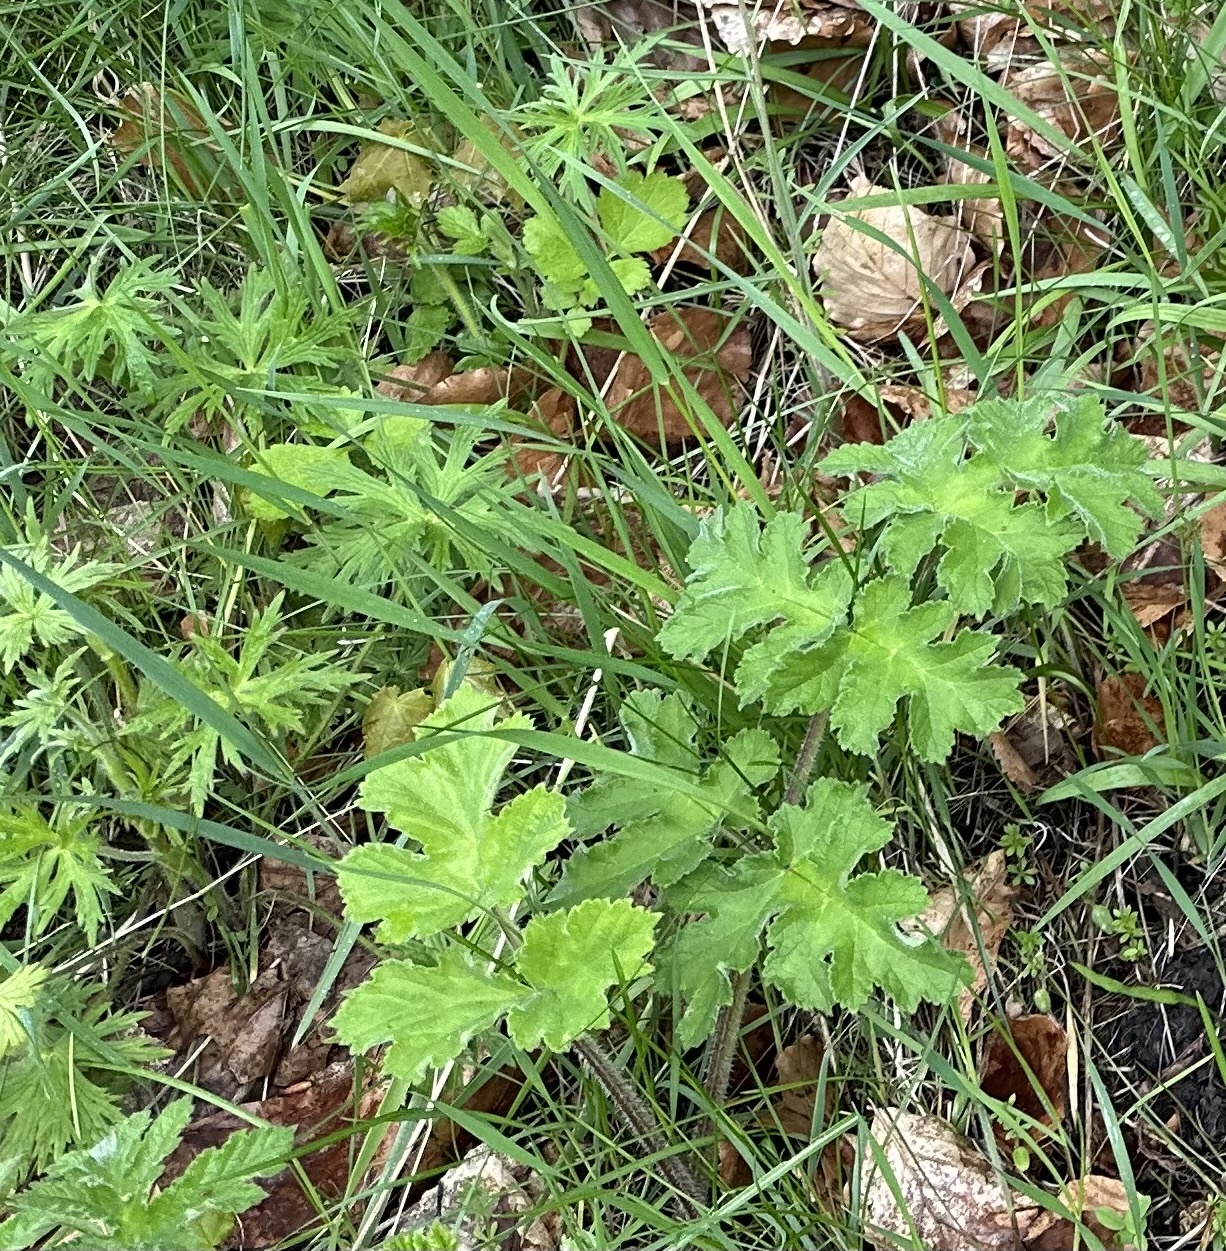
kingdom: Plantae
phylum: Tracheophyta
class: Magnoliopsida
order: Apiales
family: Apiaceae
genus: Heracleum
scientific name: Heracleum sphondylium
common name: Hogweed
